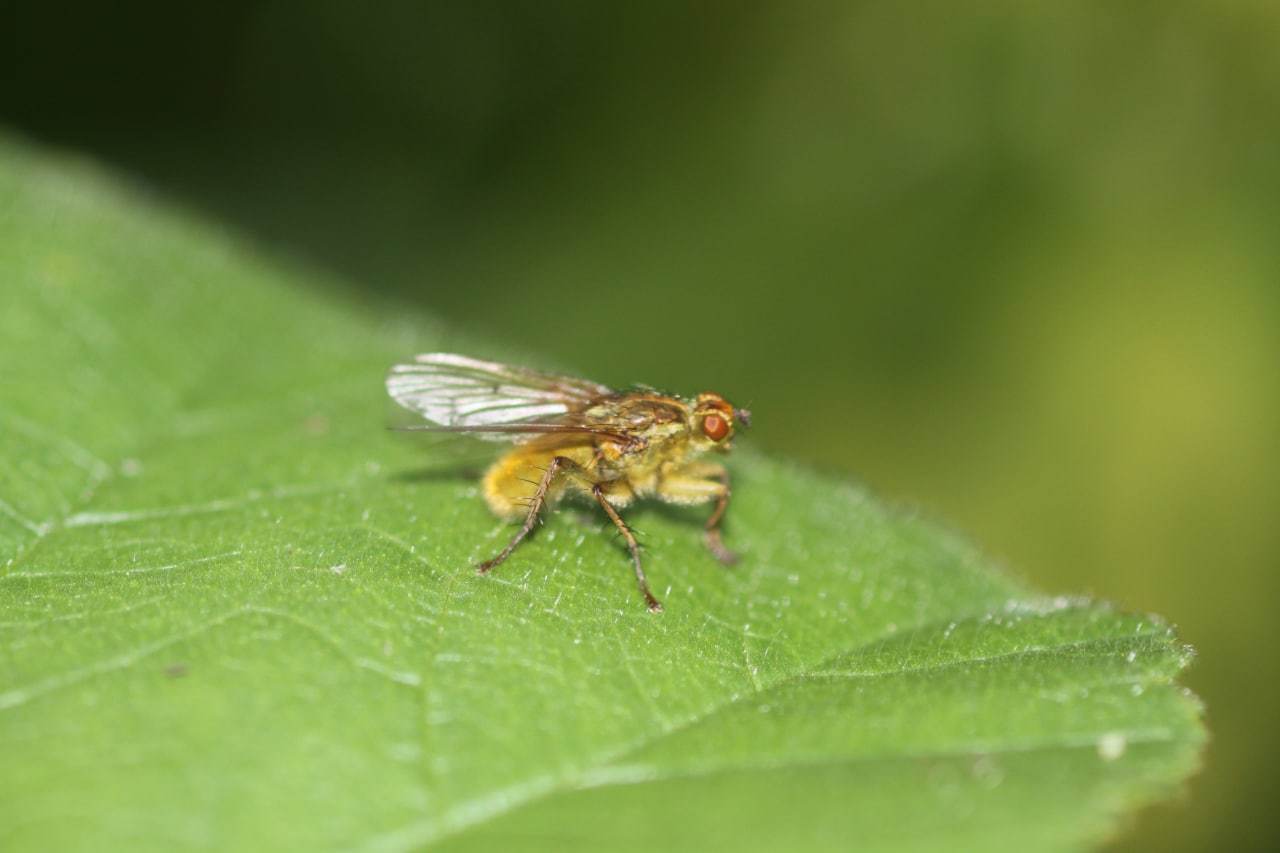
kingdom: Animalia
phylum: Arthropoda
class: Insecta
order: Diptera
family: Scathophagidae
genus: Scathophaga
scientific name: Scathophaga stercoraria
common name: Yellow dung fly
